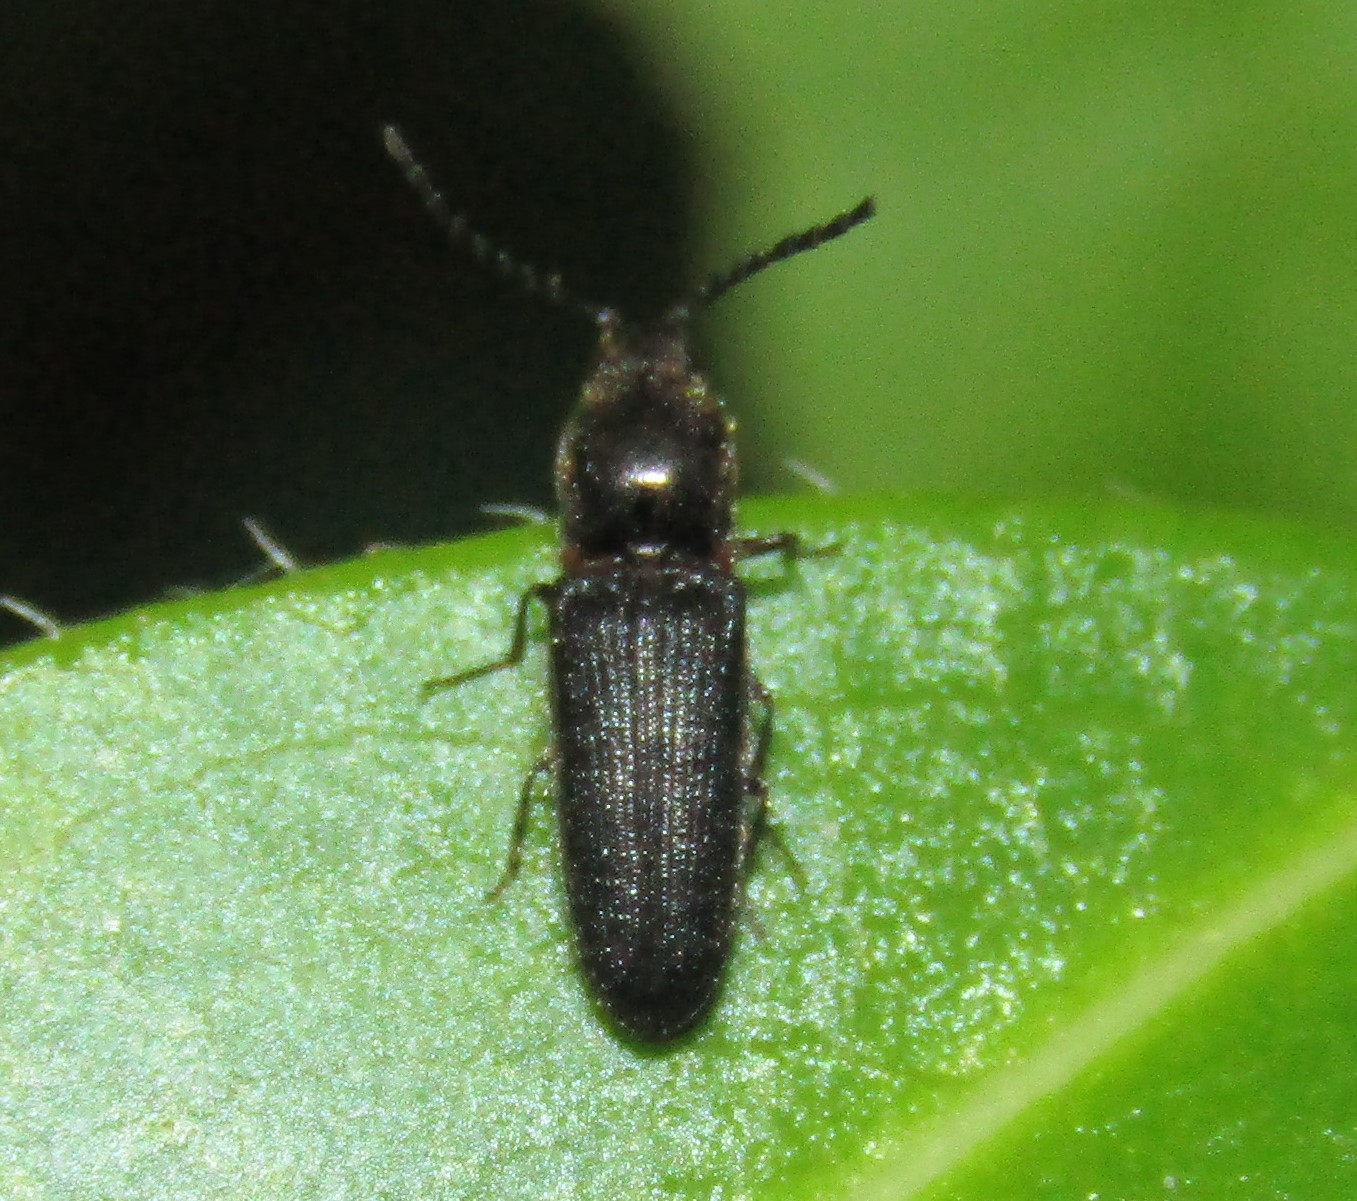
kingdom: Animalia
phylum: Arthropoda
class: Insecta
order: Coleoptera
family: Elateridae
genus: Limonius
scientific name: Limonius basilaris
